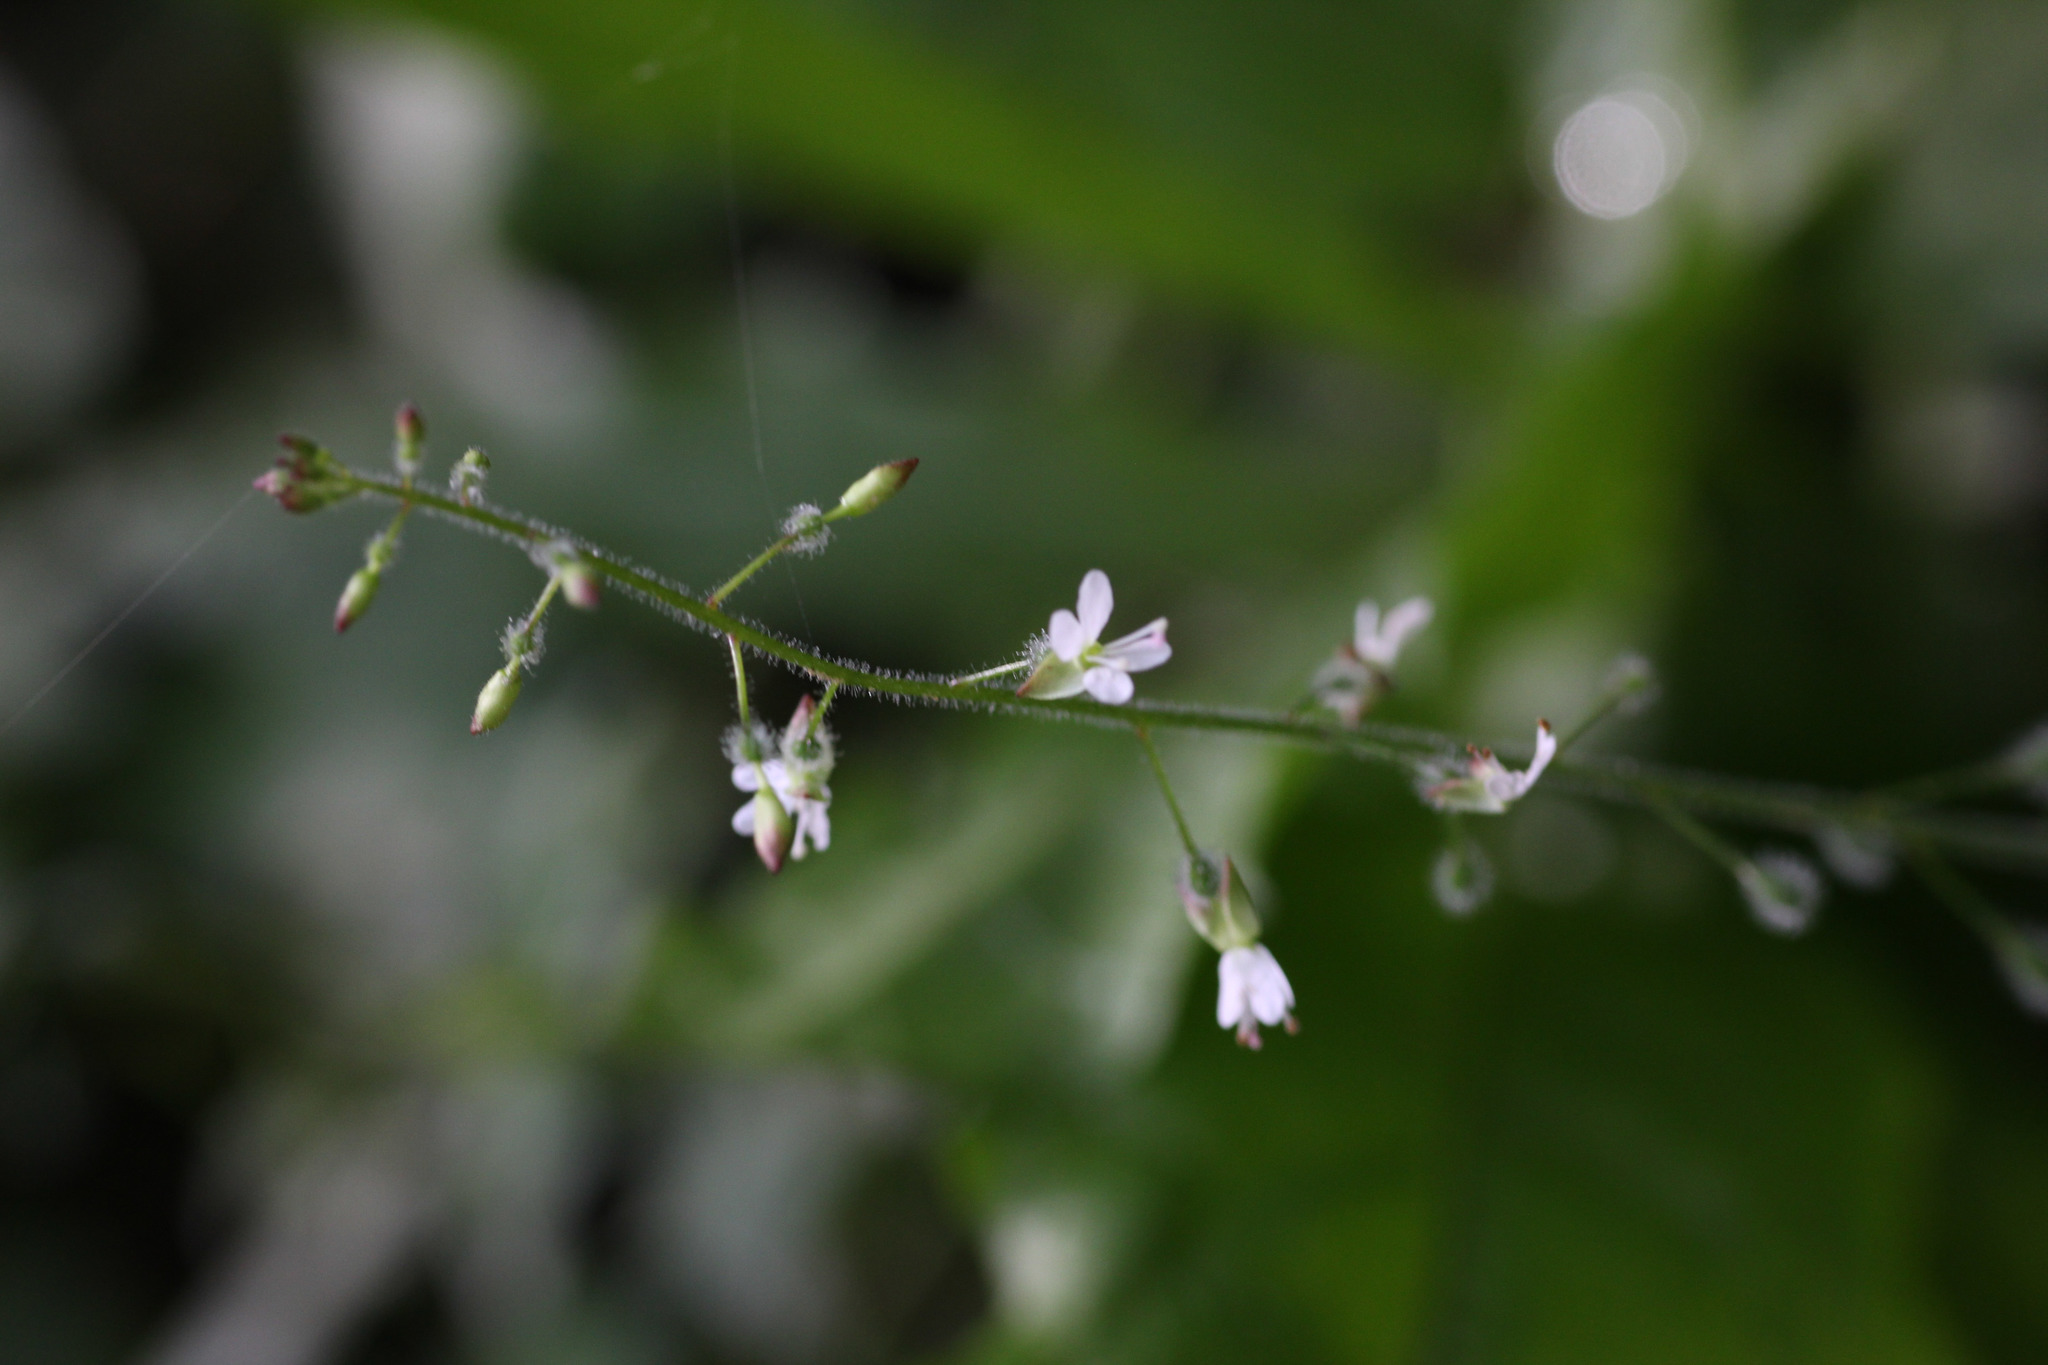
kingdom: Plantae
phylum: Tracheophyta
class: Magnoliopsida
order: Myrtales
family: Onagraceae
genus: Circaea
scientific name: Circaea lutetiana
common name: Enchanter's-nightshade
